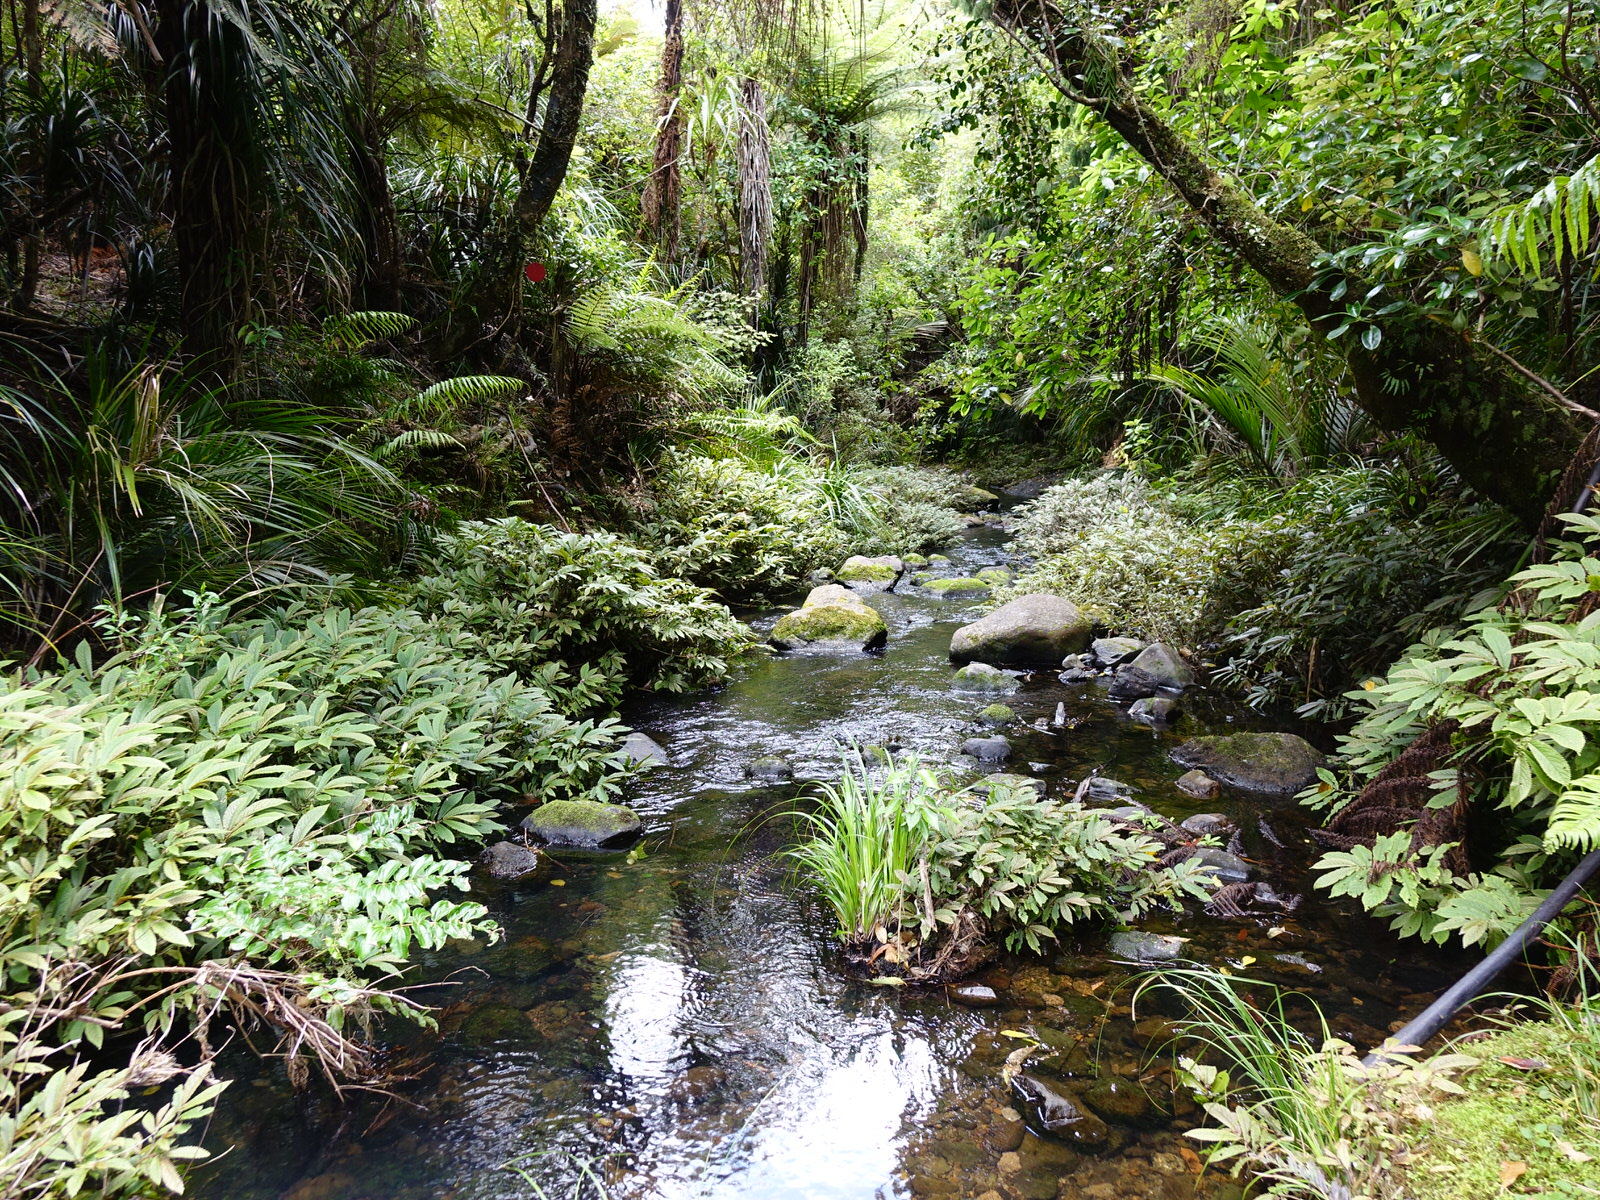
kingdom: Plantae
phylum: Tracheophyta
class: Magnoliopsida
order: Rosales
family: Urticaceae
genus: Elatostema
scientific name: Elatostema rugosum
